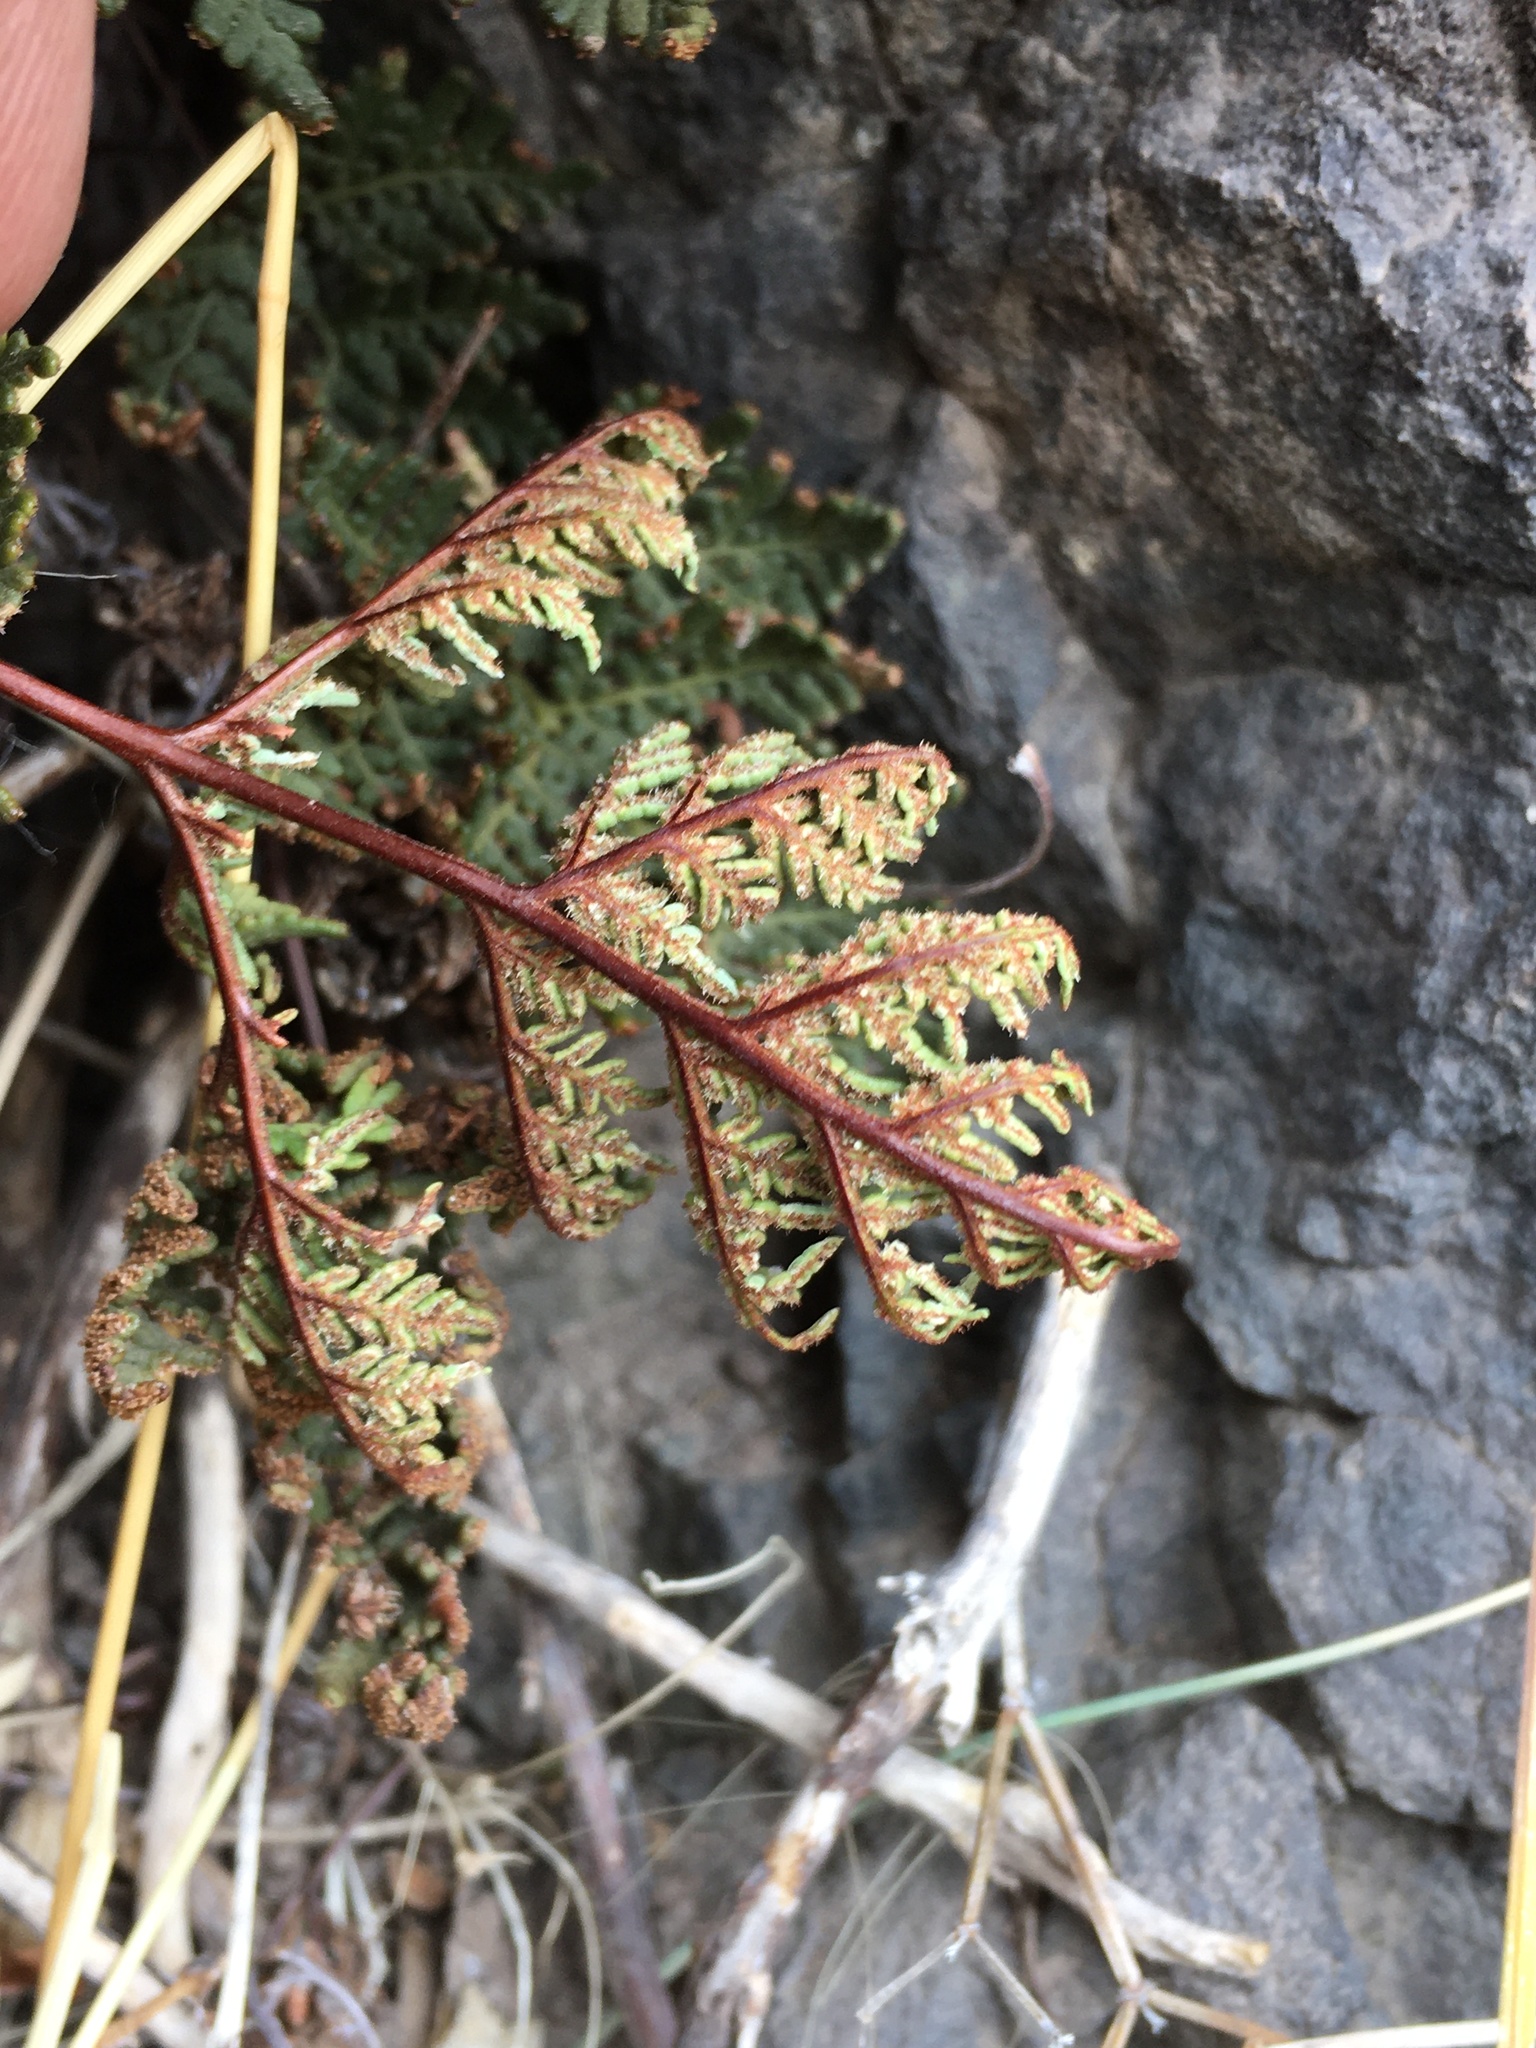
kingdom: Plantae
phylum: Tracheophyta
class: Polypodiopsida
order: Polypodiales
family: Pteridaceae
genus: Cheilanthes
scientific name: Cheilanthes glauca
